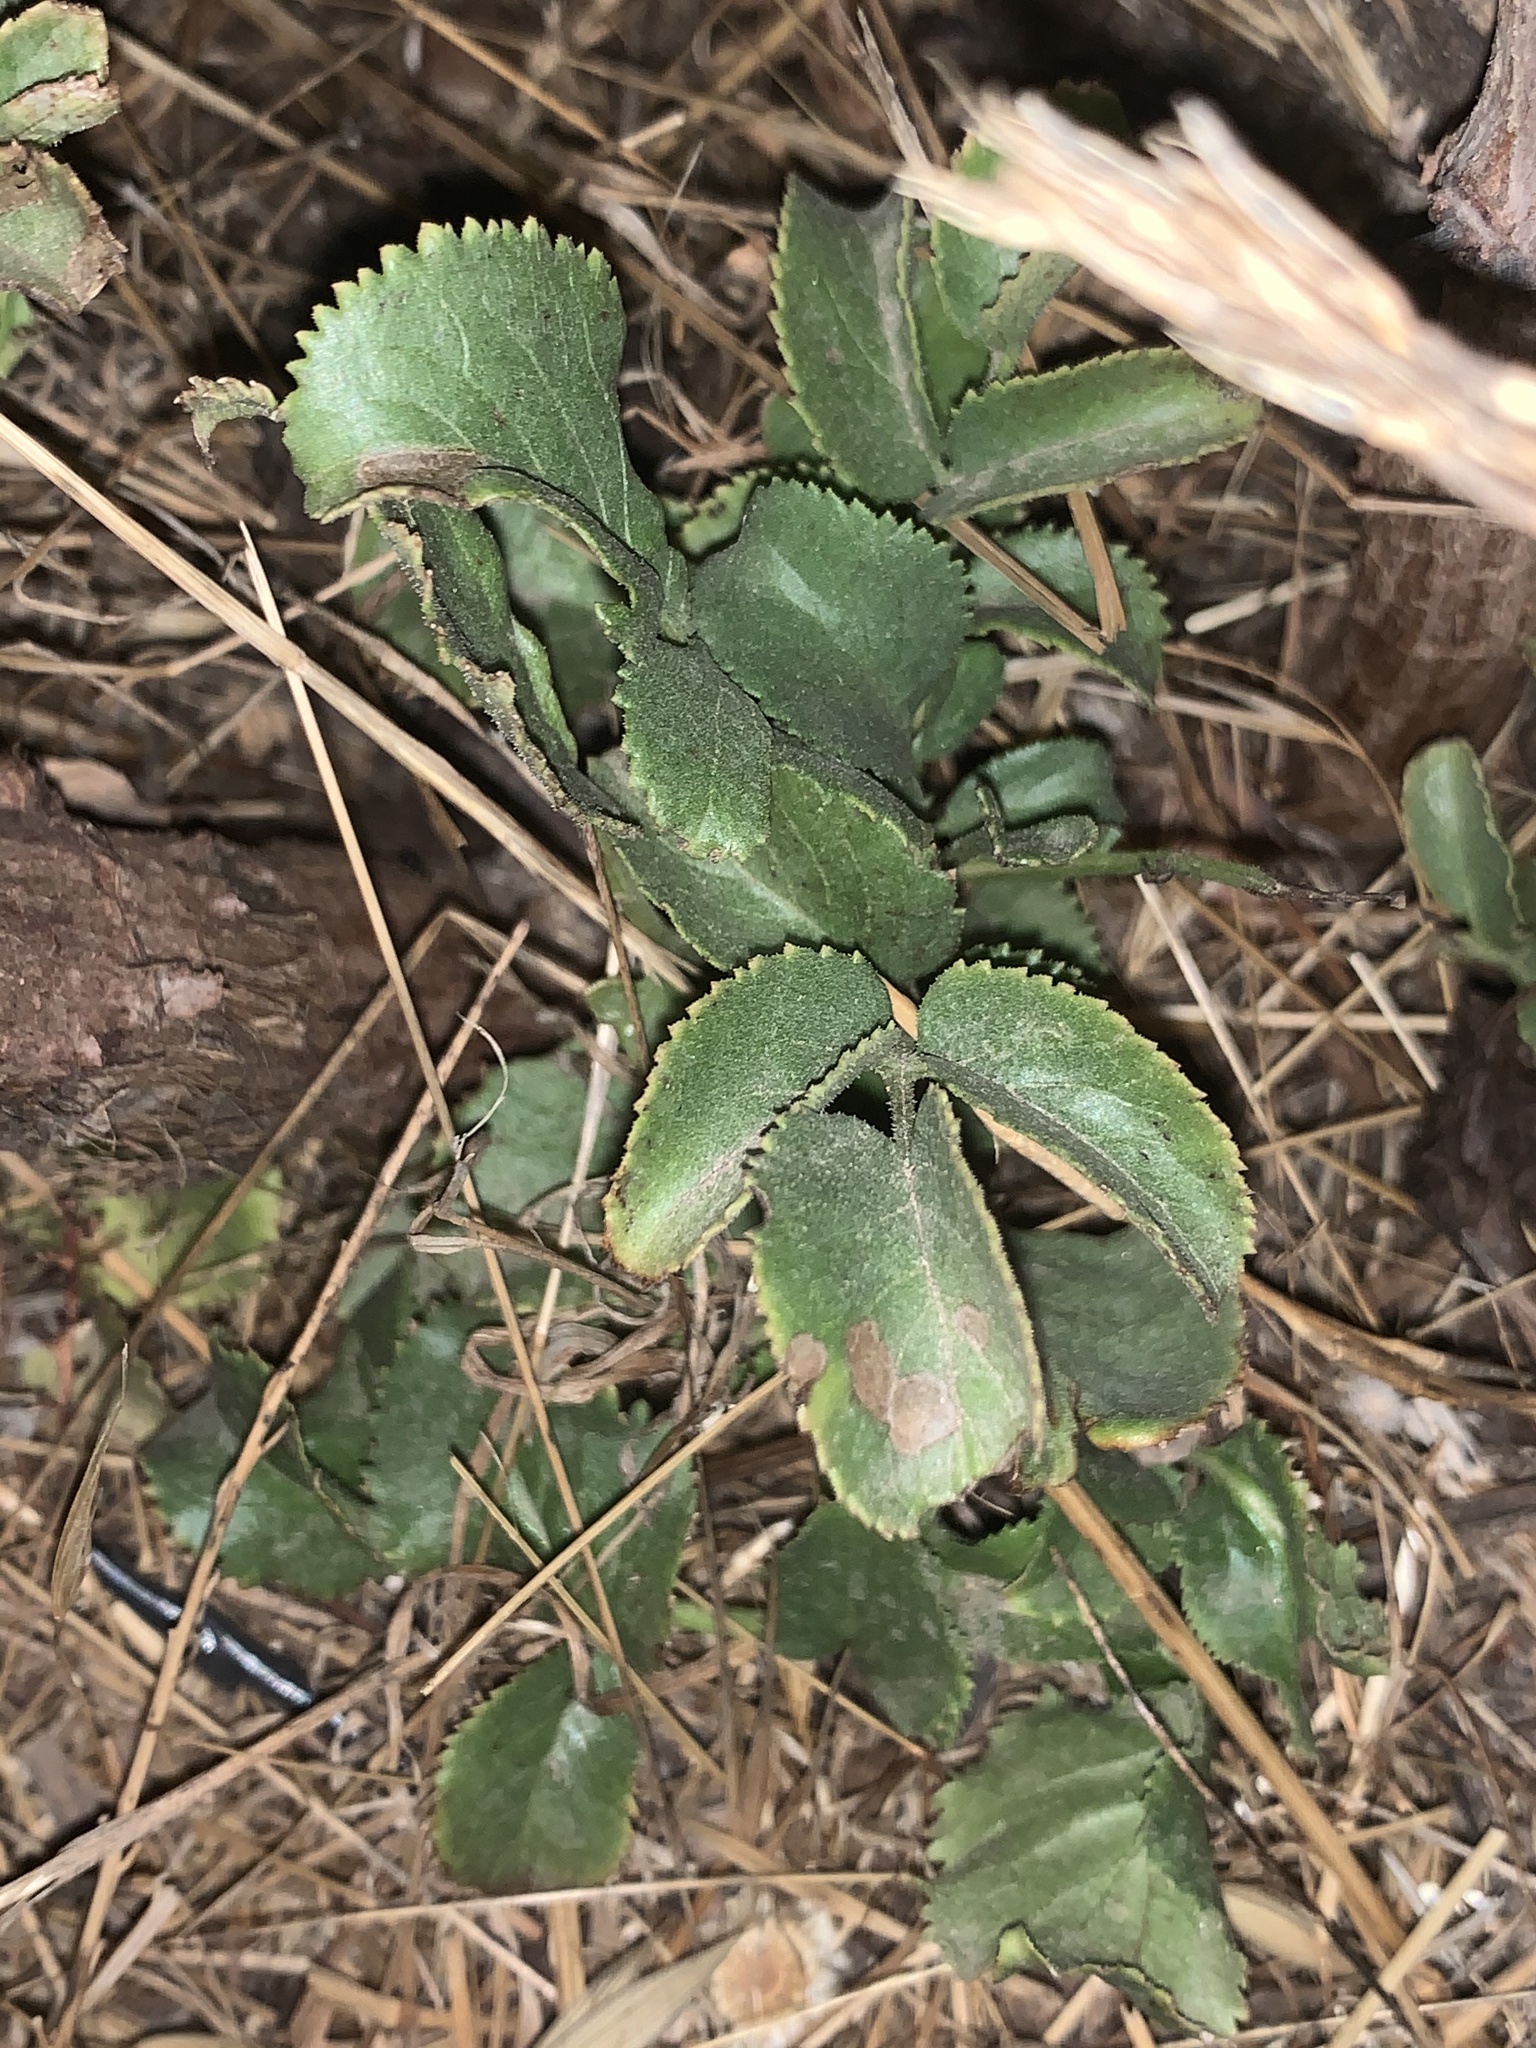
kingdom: Plantae
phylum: Tracheophyta
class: Magnoliopsida
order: Dipsacales
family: Viburnaceae
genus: Sambucus
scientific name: Sambucus cerulea
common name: Blue elder
